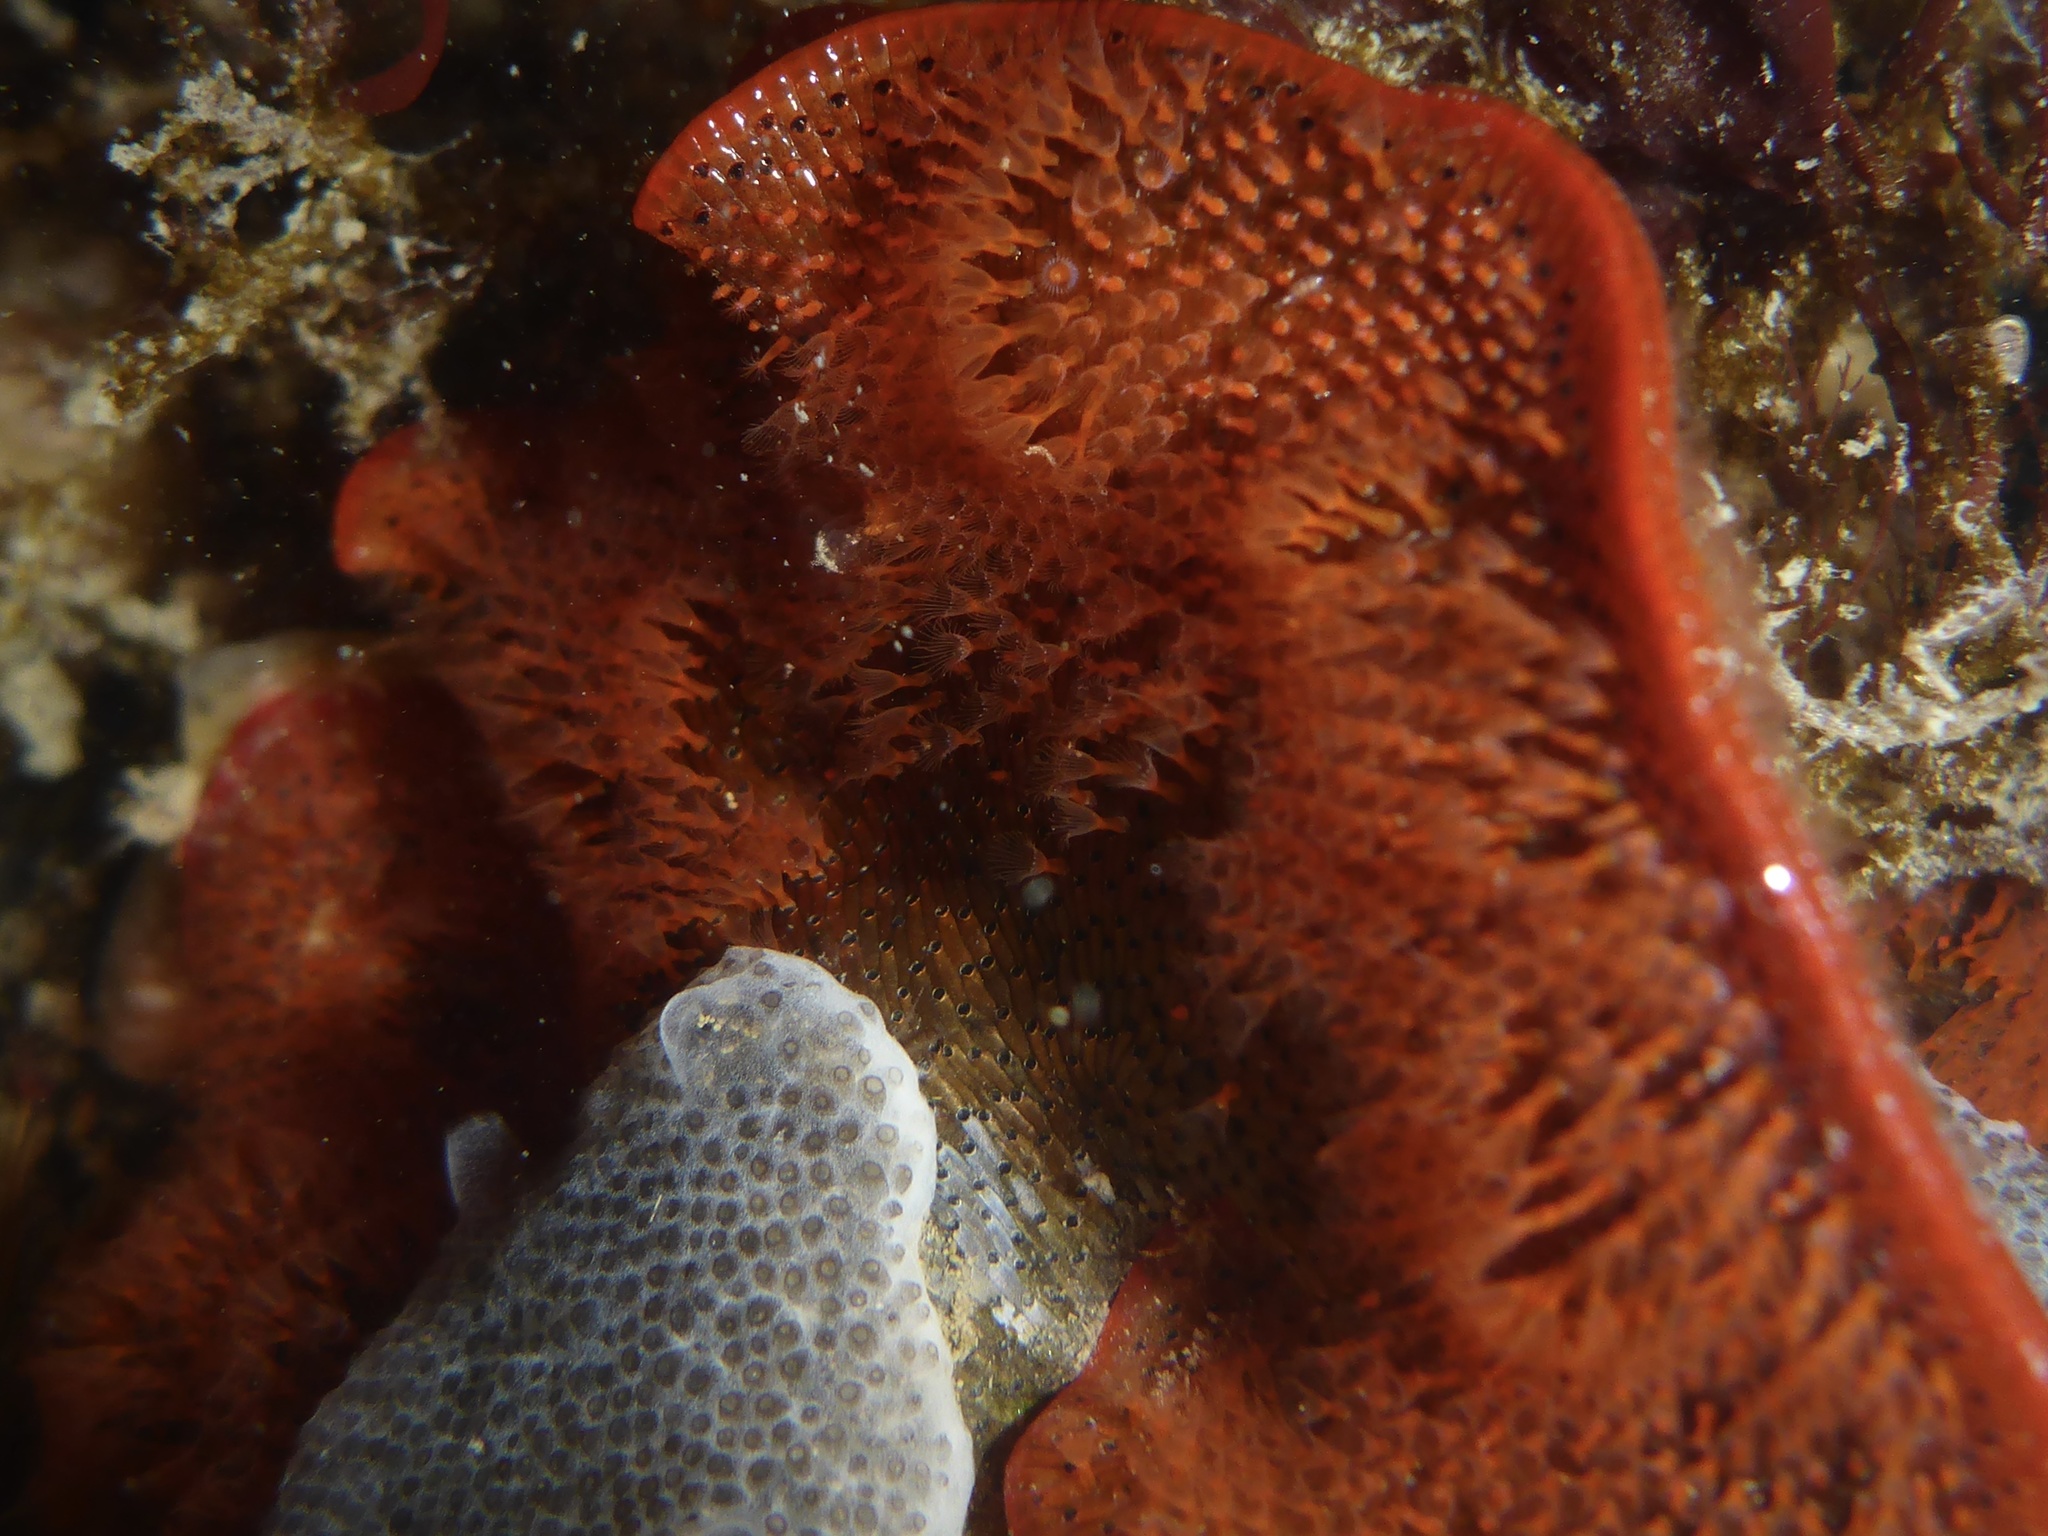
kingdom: Animalia
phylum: Bryozoa
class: Gymnolaemata
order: Cheilostomatida
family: Watersiporidae
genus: Watersipora
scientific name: Watersipora subtorquata
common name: Bryozoan
